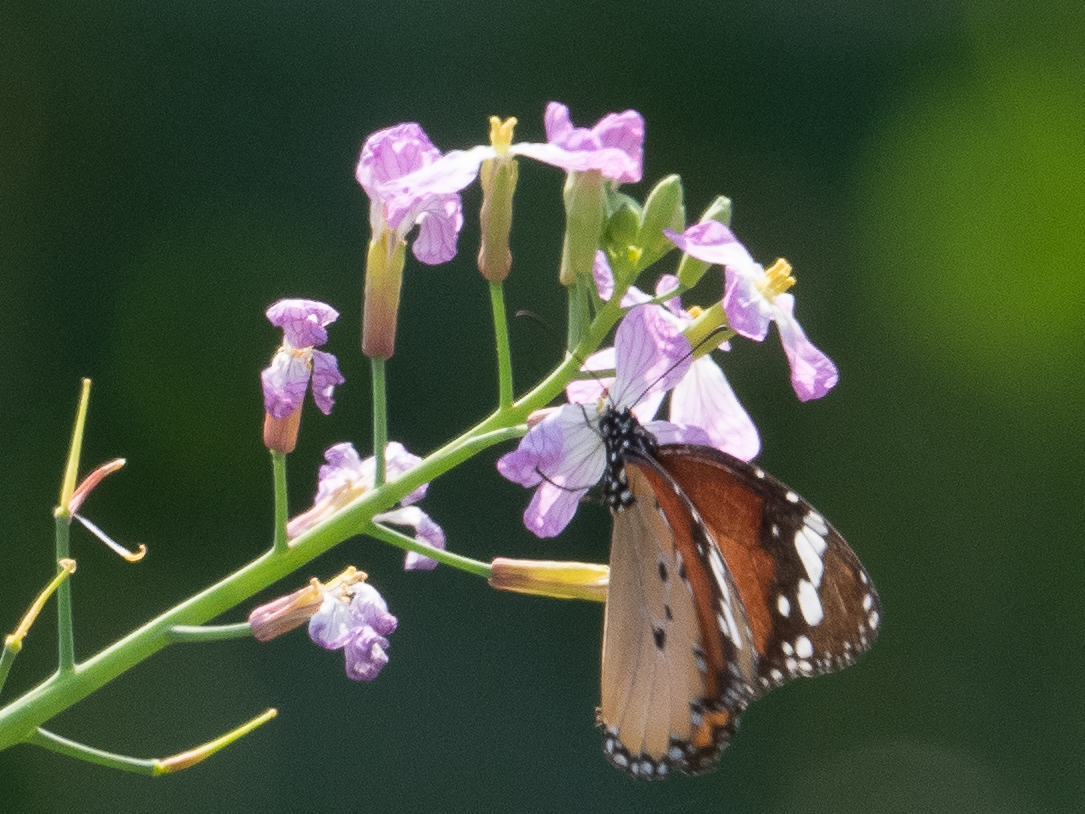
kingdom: Animalia
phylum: Arthropoda
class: Insecta
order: Lepidoptera
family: Nymphalidae
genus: Danaus
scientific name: Danaus chrysippus
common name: Plain tiger
